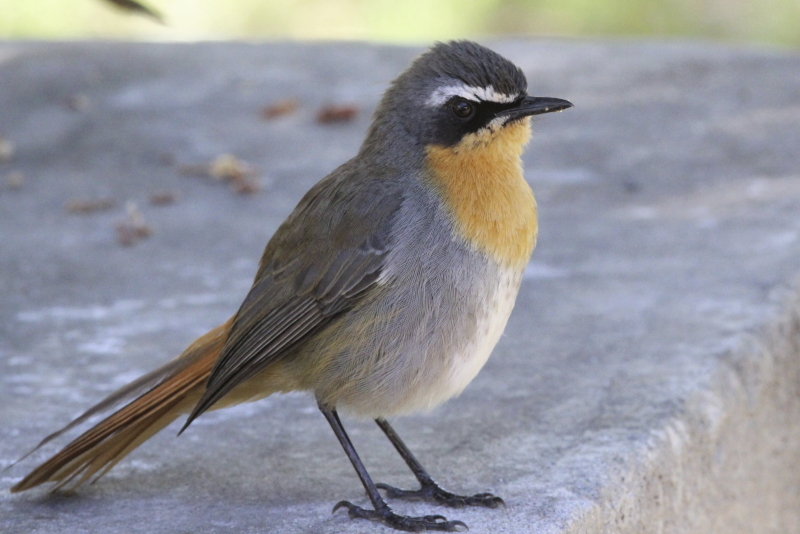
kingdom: Animalia
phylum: Chordata
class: Aves
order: Passeriformes
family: Muscicapidae
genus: Cossypha
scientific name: Cossypha caffra
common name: Cape robin-chat
